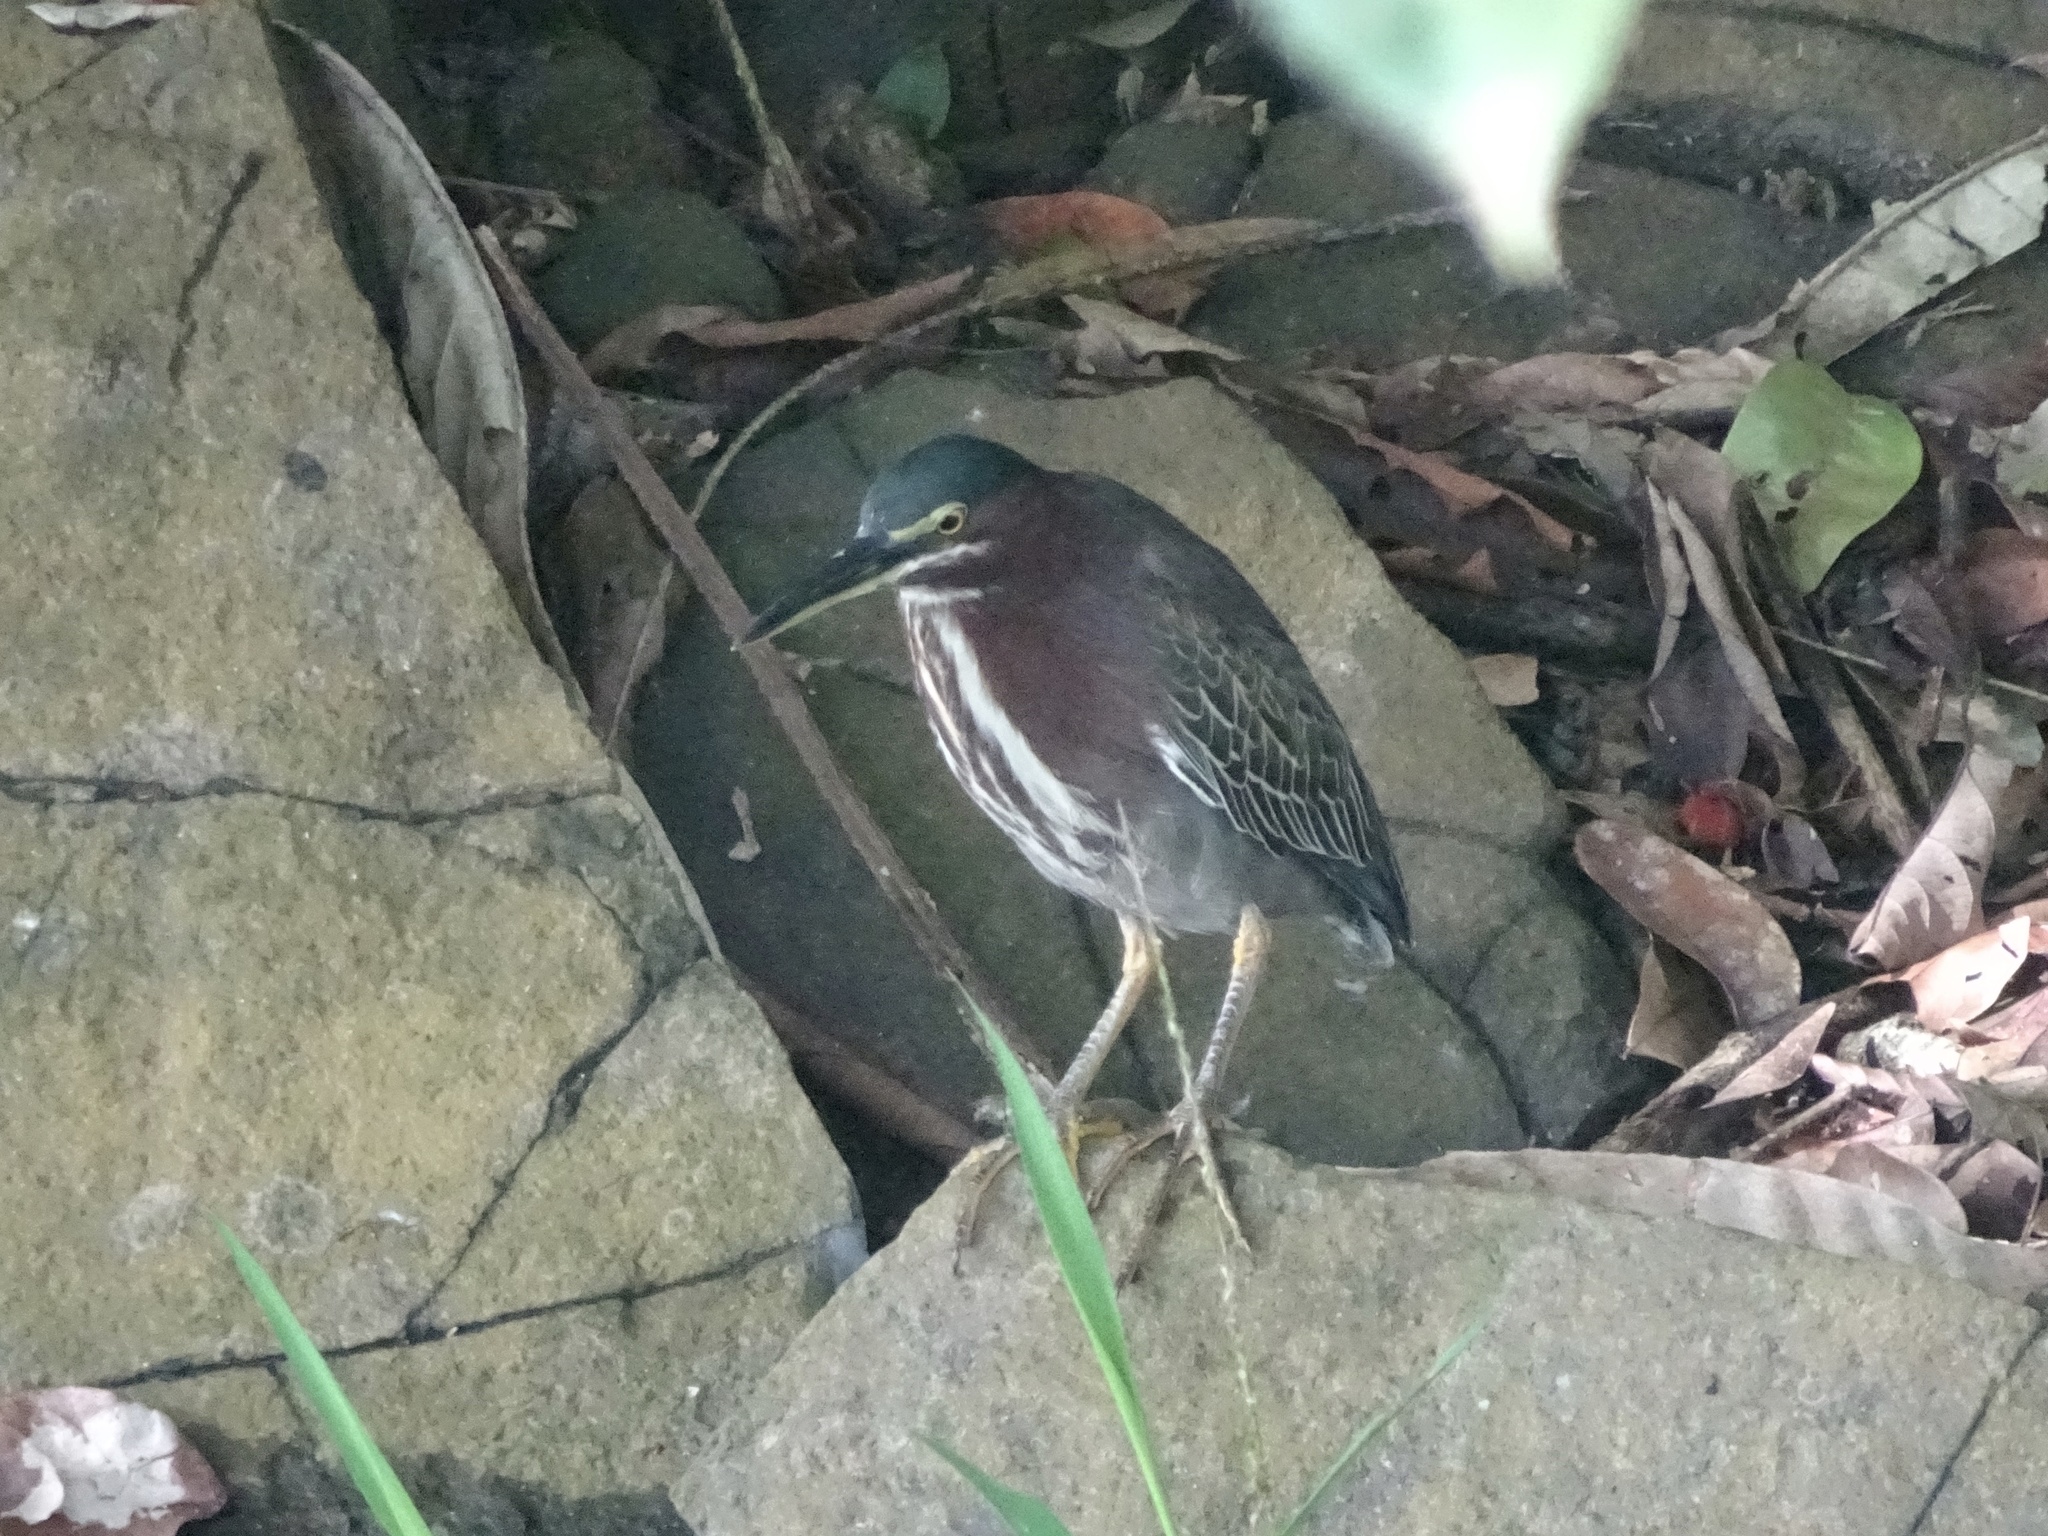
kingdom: Animalia
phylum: Chordata
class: Aves
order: Pelecaniformes
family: Ardeidae
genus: Butorides
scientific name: Butorides virescens
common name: Green heron
